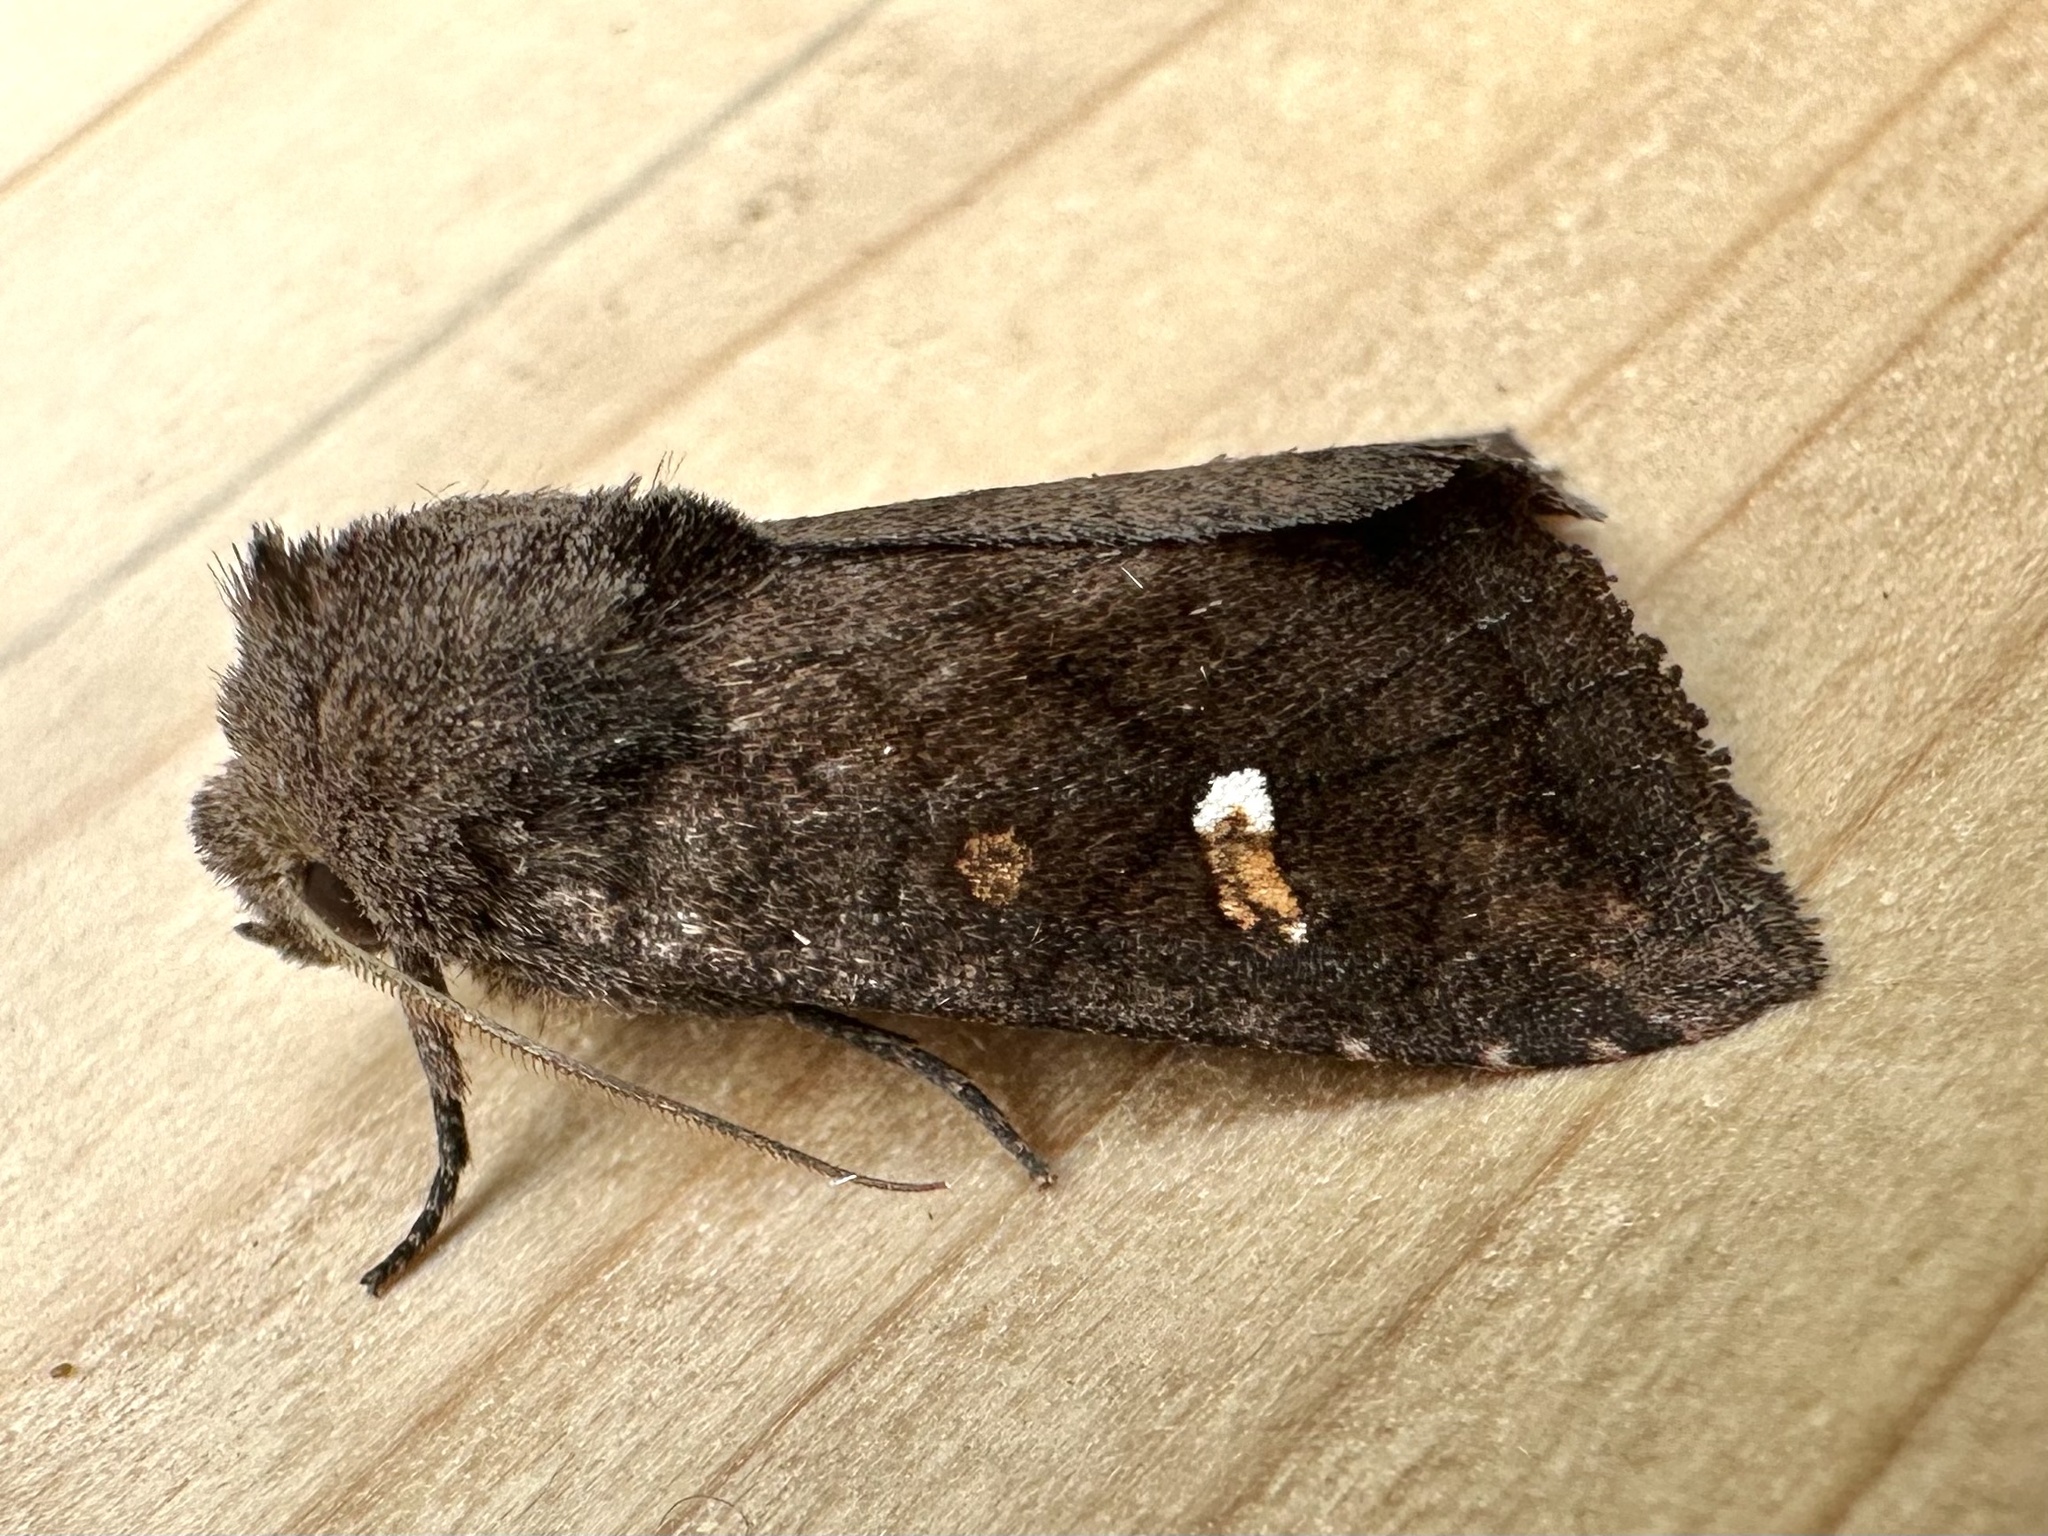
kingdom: Animalia
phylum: Arthropoda
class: Insecta
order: Lepidoptera
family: Noctuidae
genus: Tricholita
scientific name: Tricholita signata
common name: Signate quaker
